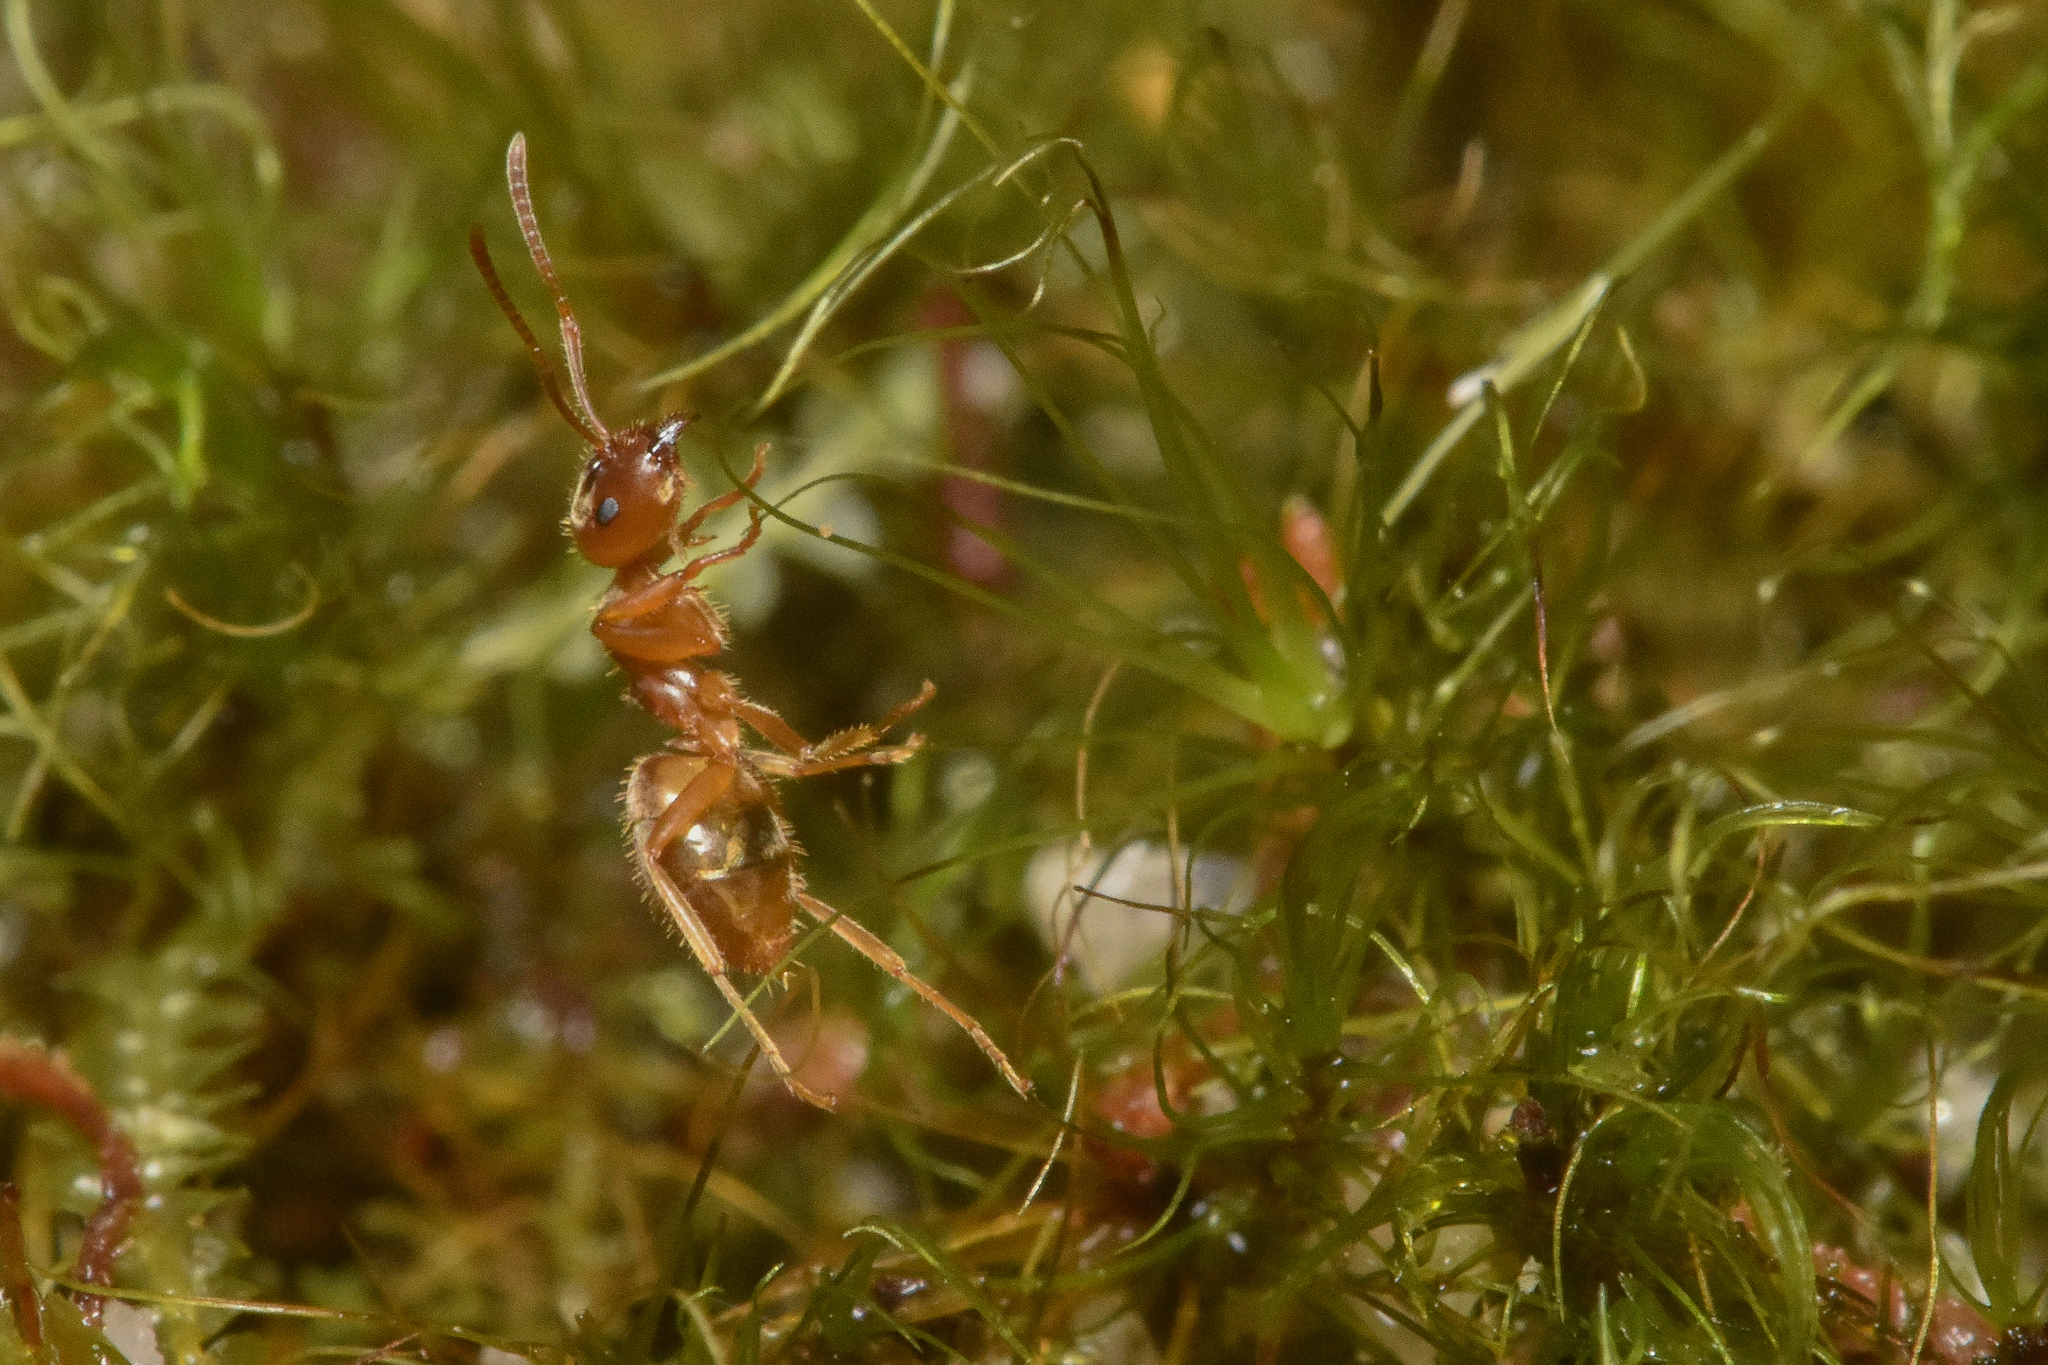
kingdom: Animalia
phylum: Arthropoda
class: Insecta
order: Hymenoptera
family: Formicidae
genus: Lasius
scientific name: Lasius pallitarsis
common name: Subterranean aphid-tending ant
